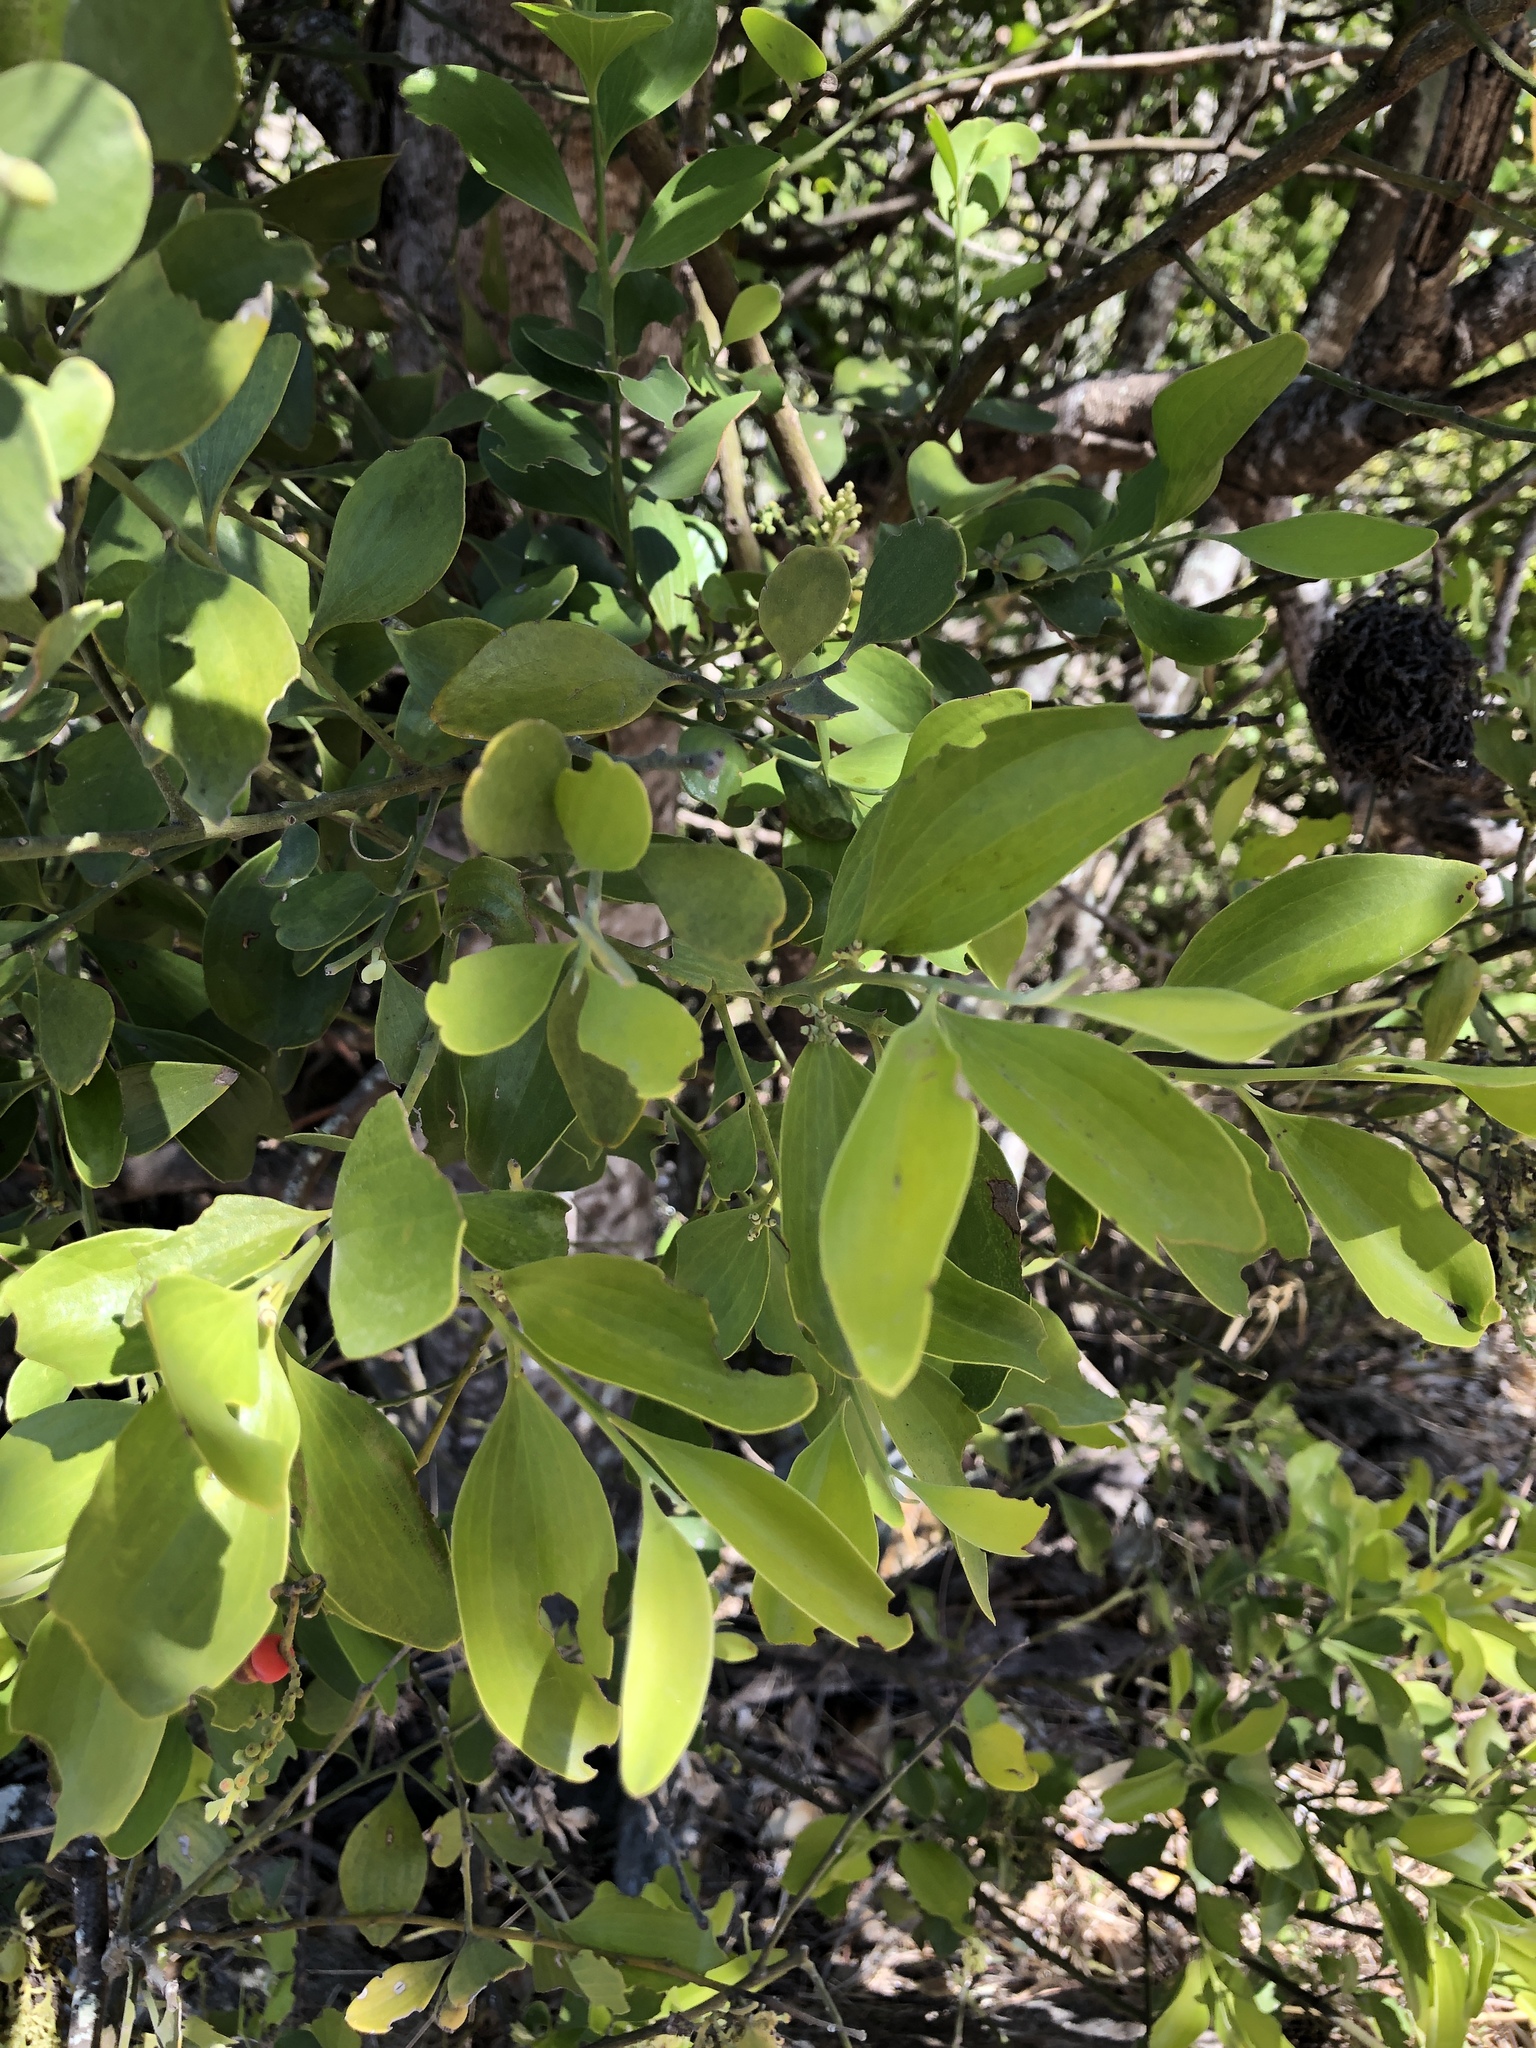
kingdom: Plantae
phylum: Tracheophyta
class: Magnoliopsida
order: Santalales
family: Santalaceae
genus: Exocarpos
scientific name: Exocarpos latifolius
